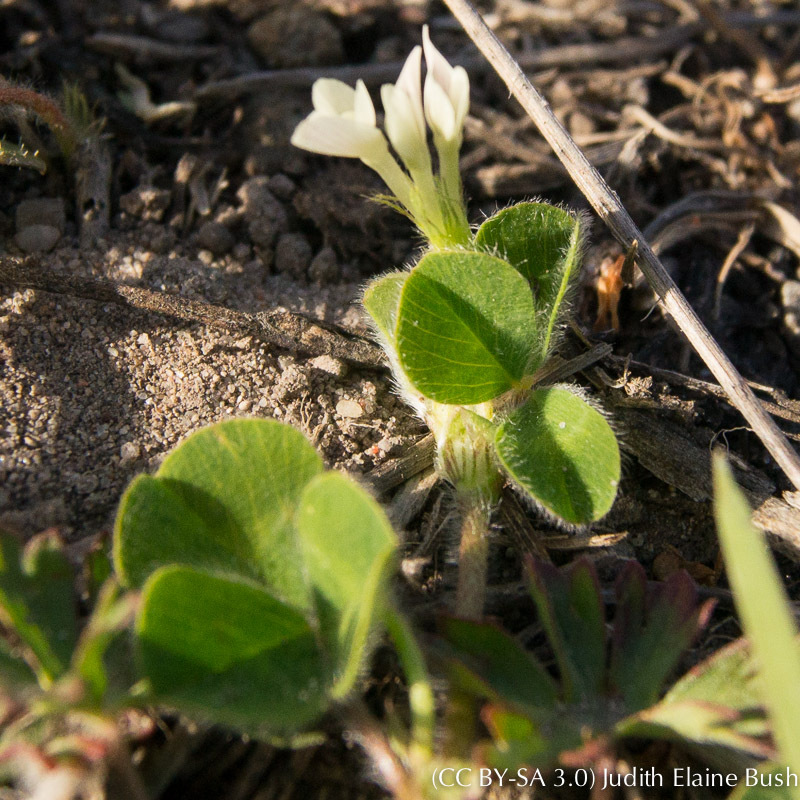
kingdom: Plantae
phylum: Tracheophyta
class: Magnoliopsida
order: Fabales
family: Fabaceae
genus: Trifolium
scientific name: Trifolium subterraneum
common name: Subterranean clover
